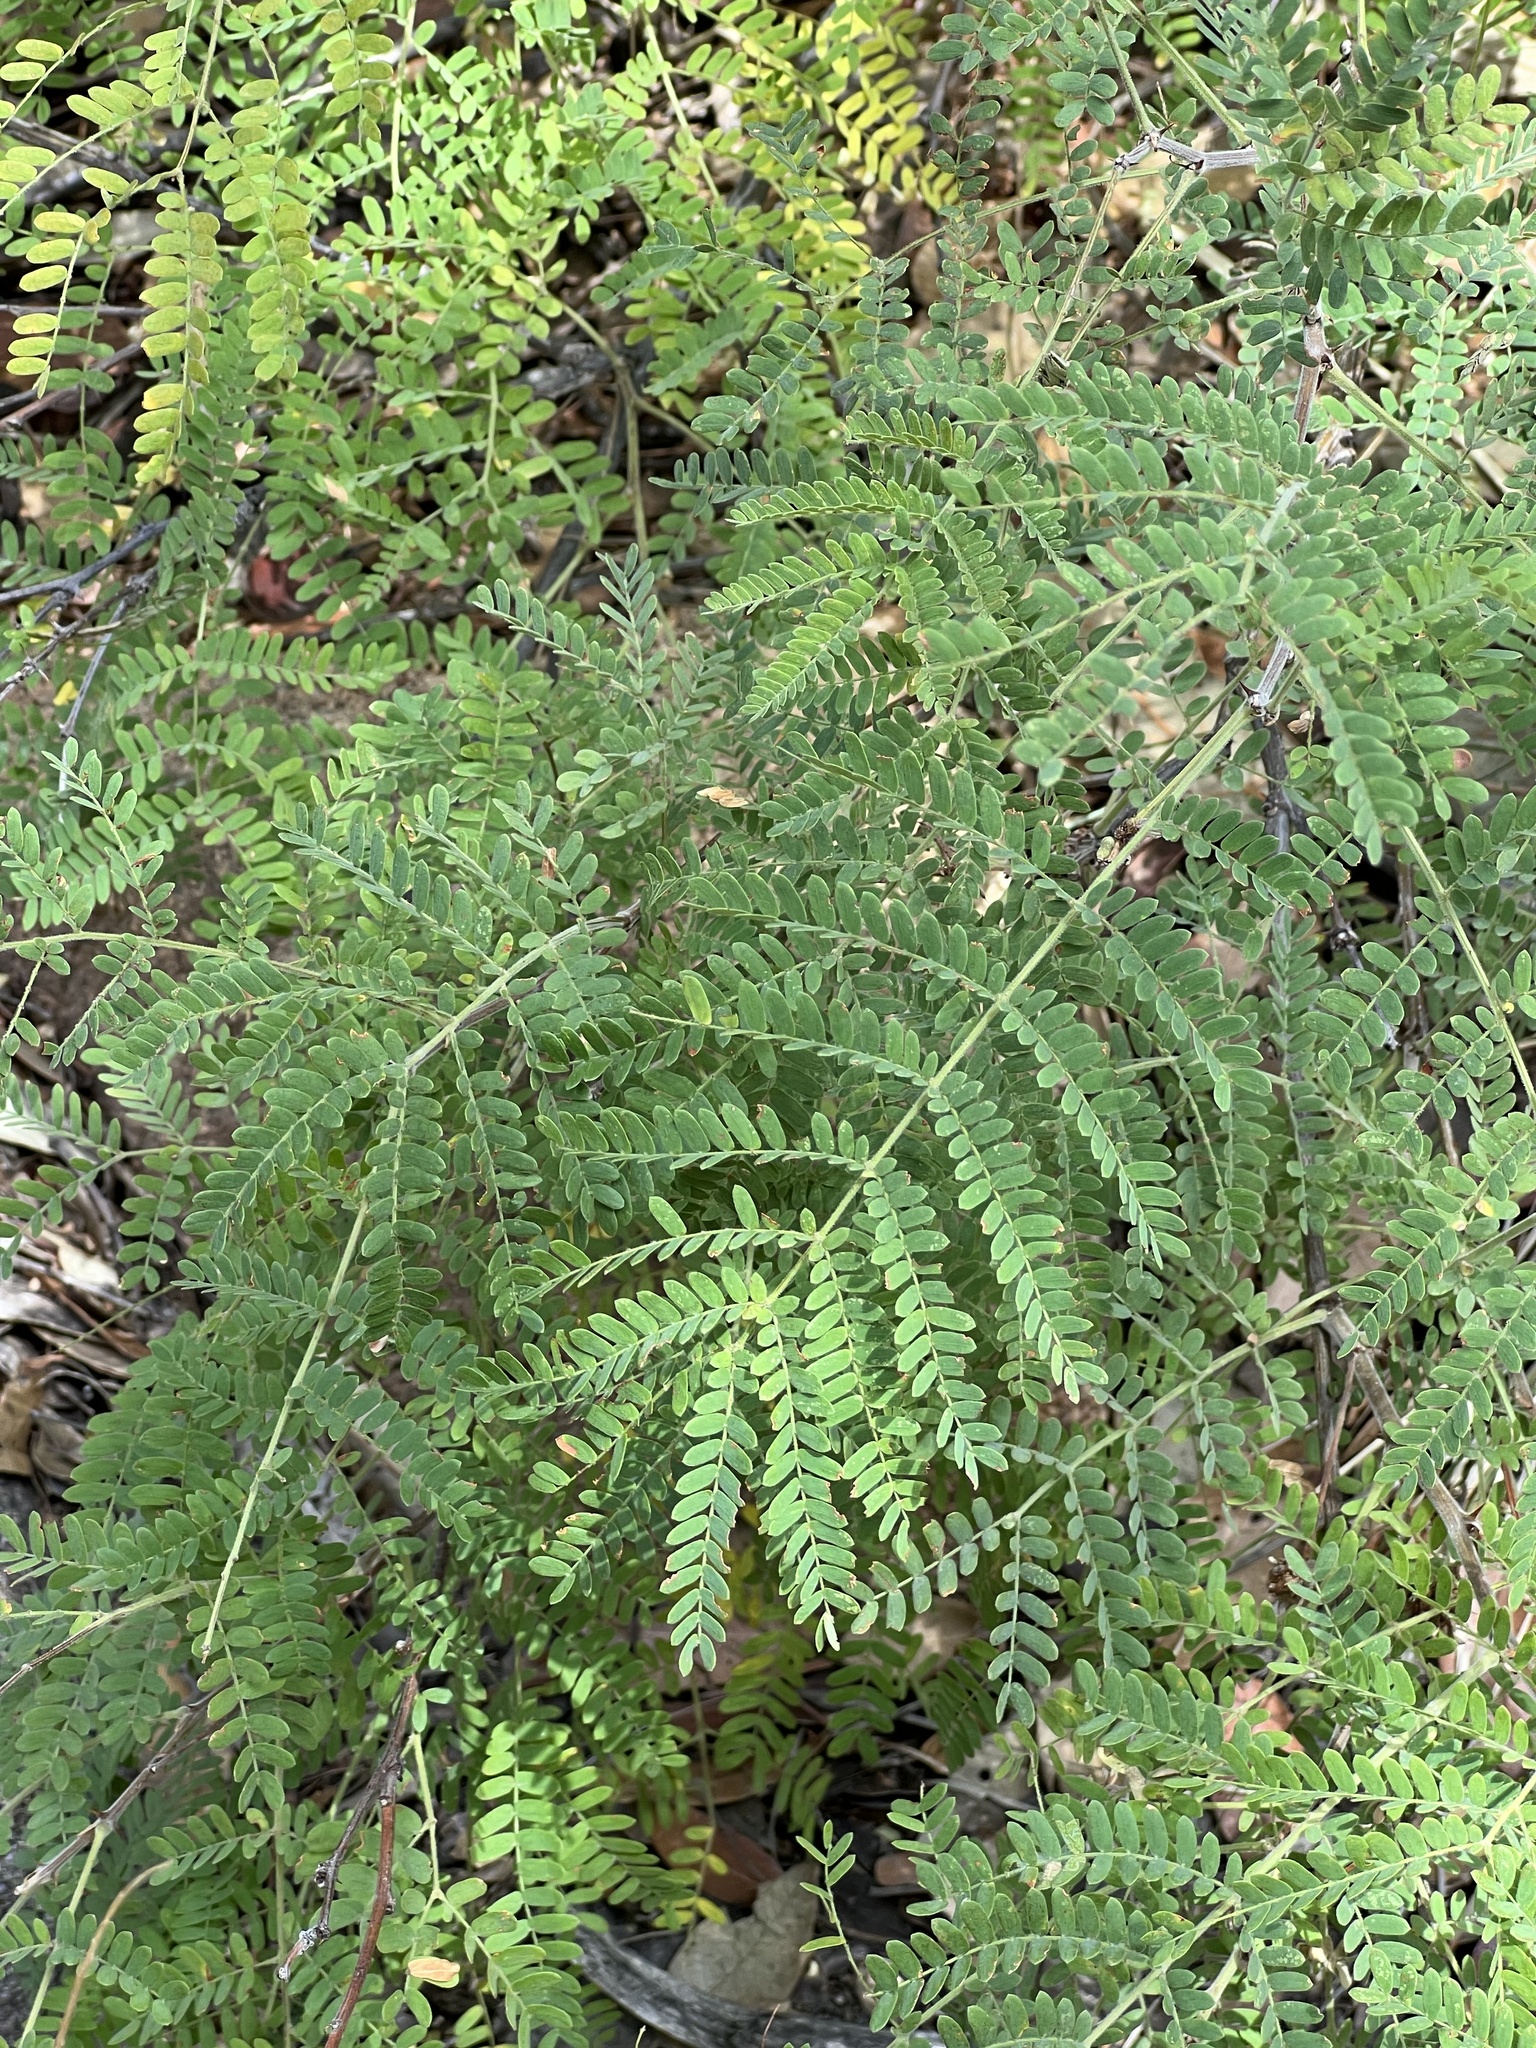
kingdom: Plantae
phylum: Tracheophyta
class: Magnoliopsida
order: Fabales
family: Fabaceae
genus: Mimosa
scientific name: Mimosa grahamii
